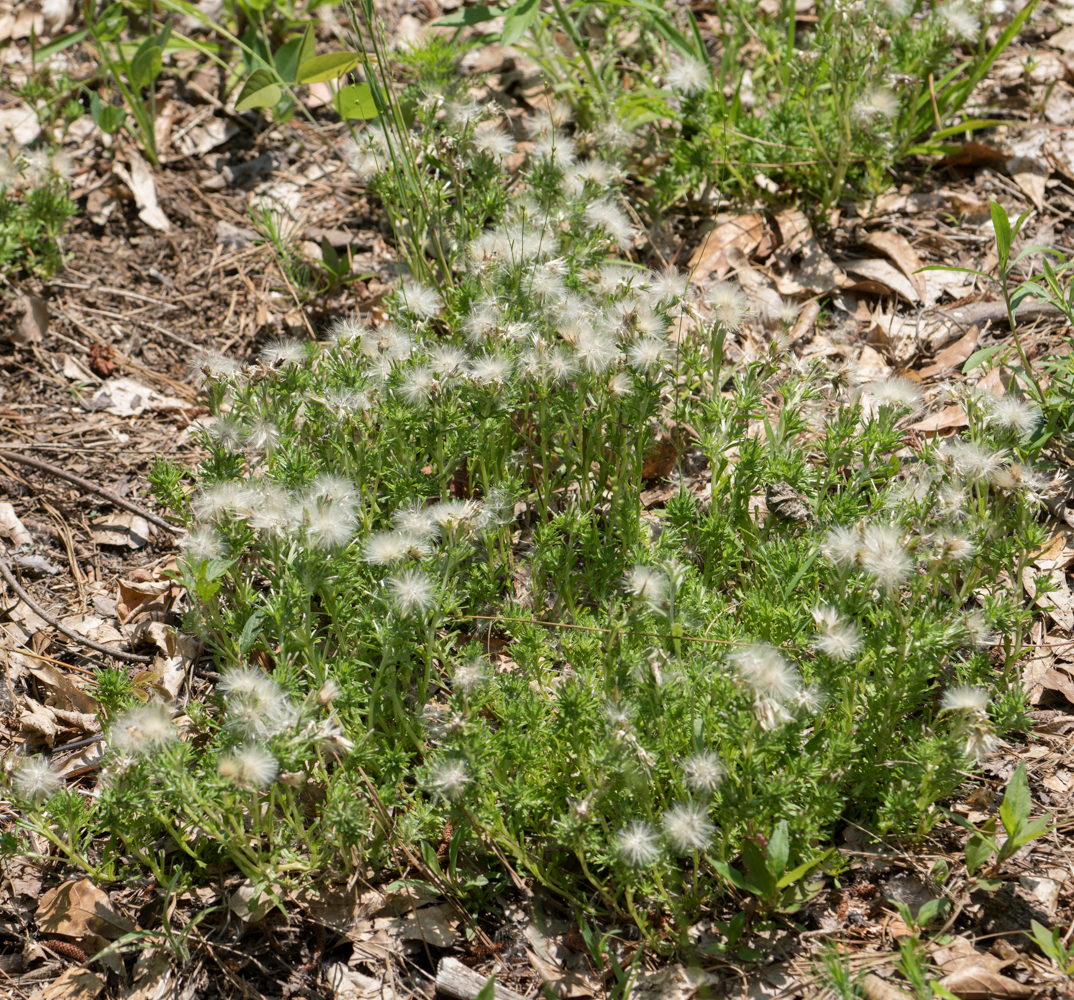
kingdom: Plantae
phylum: Tracheophyta
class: Magnoliopsida
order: Asterales
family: Asteraceae
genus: Facelis
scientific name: Facelis retusa
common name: Annual trampweed
